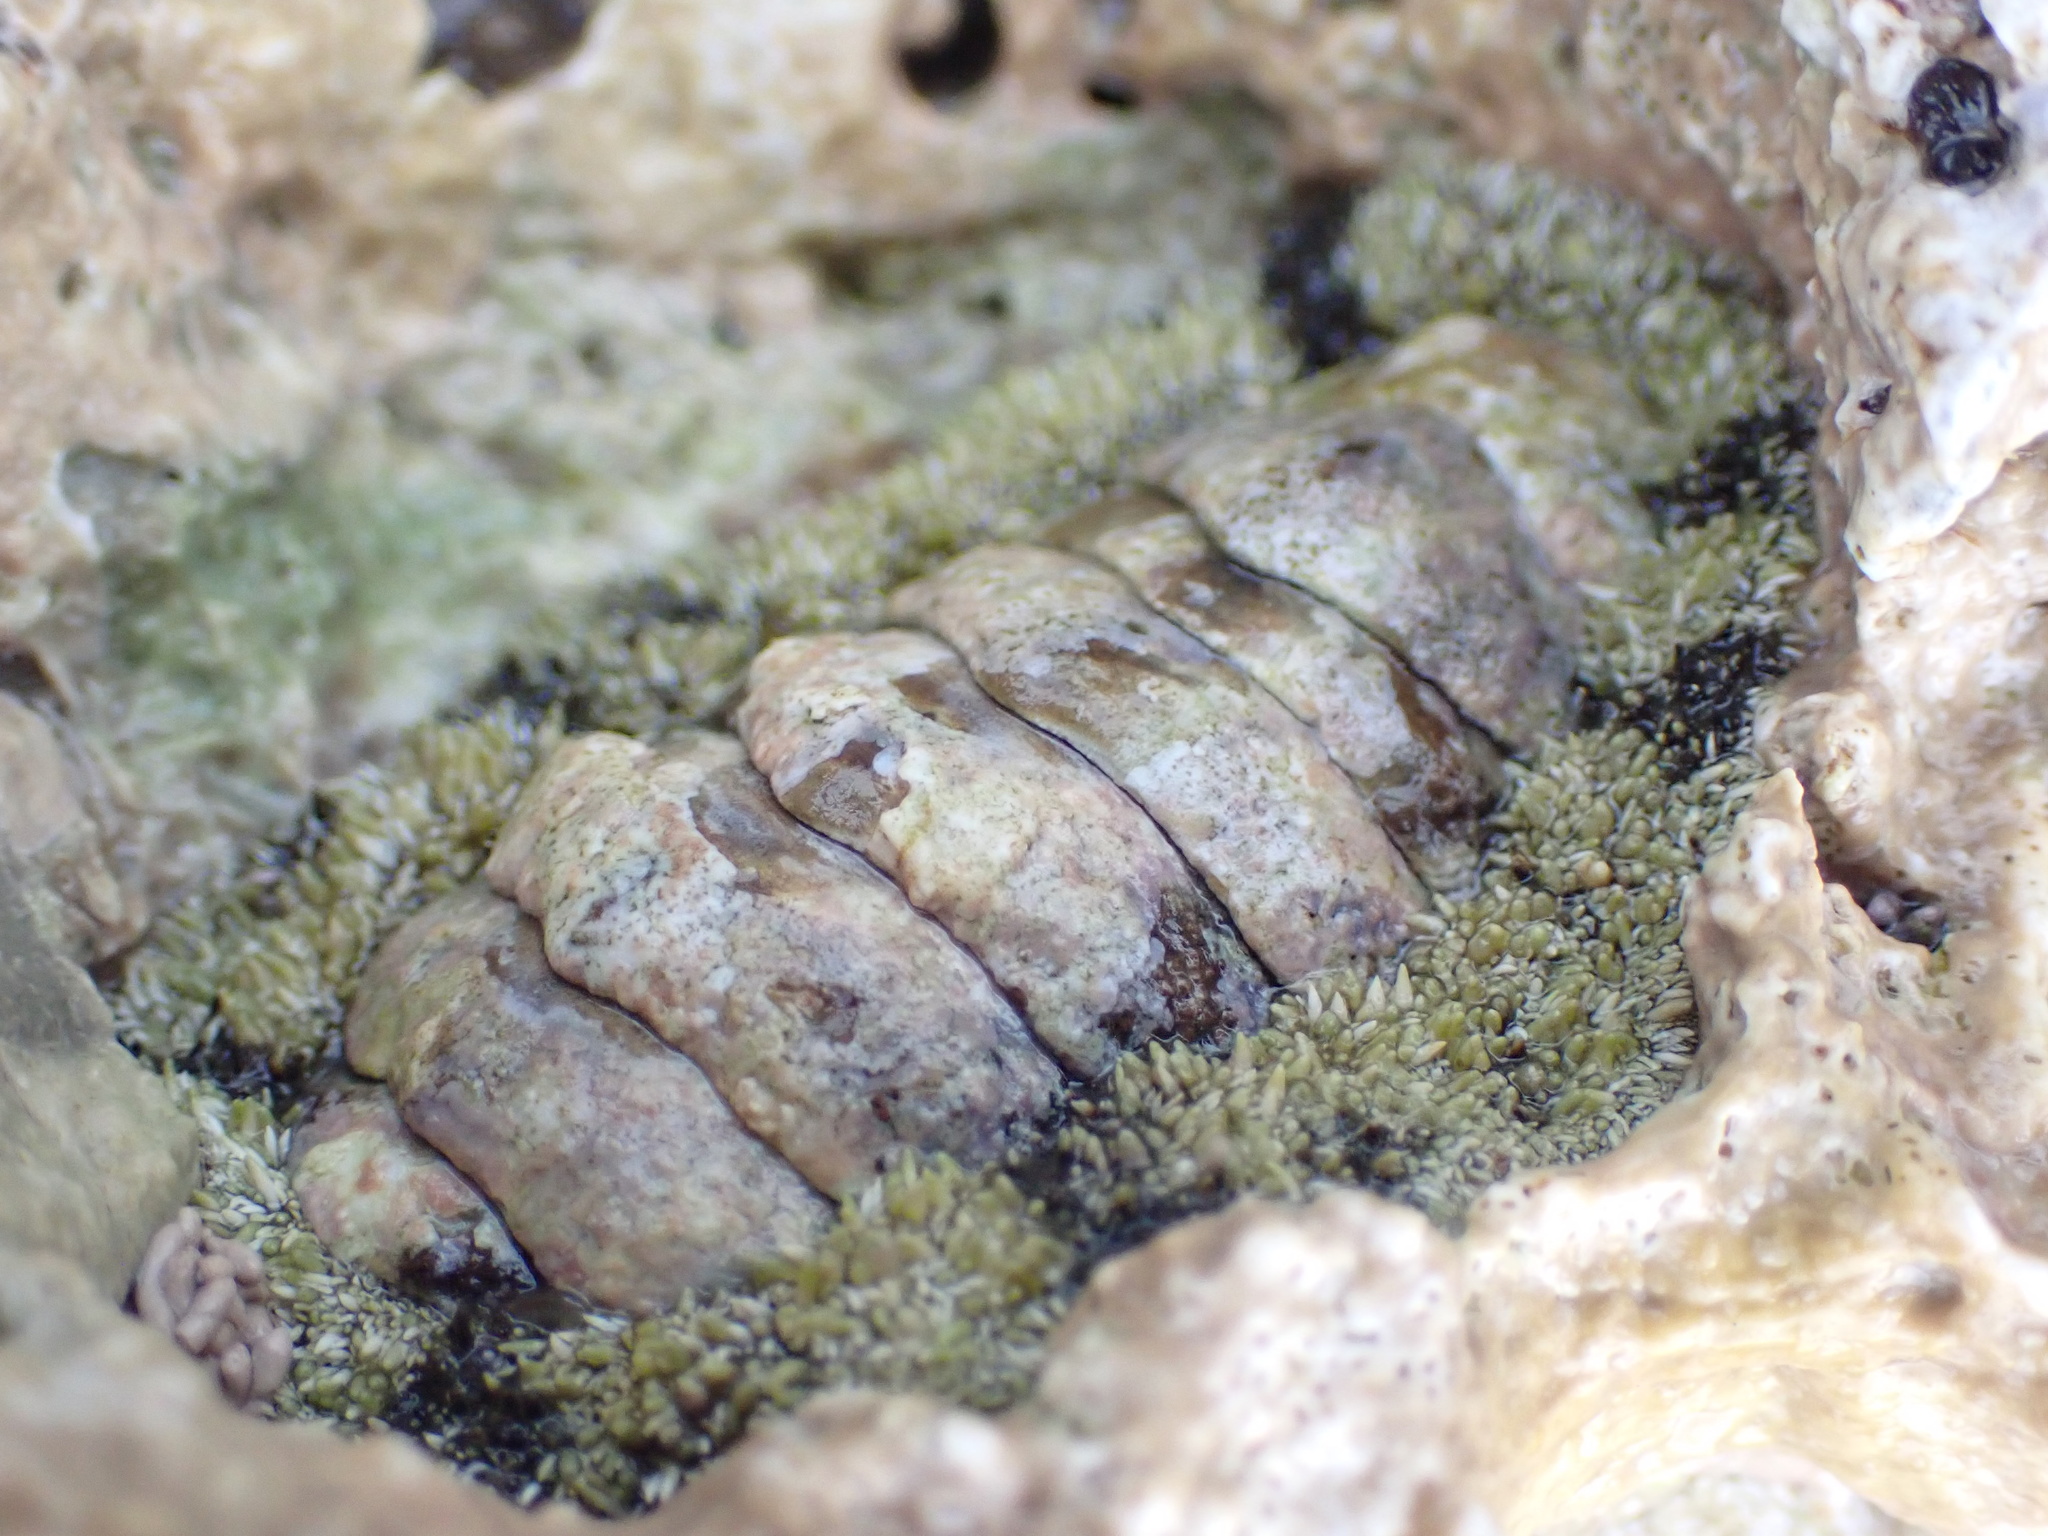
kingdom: Animalia
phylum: Mollusca
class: Polyplacophora
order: Chitonida
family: Chitonidae
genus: Acanthopleura
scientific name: Acanthopleura granulata
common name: West indian fuzzy chiton
